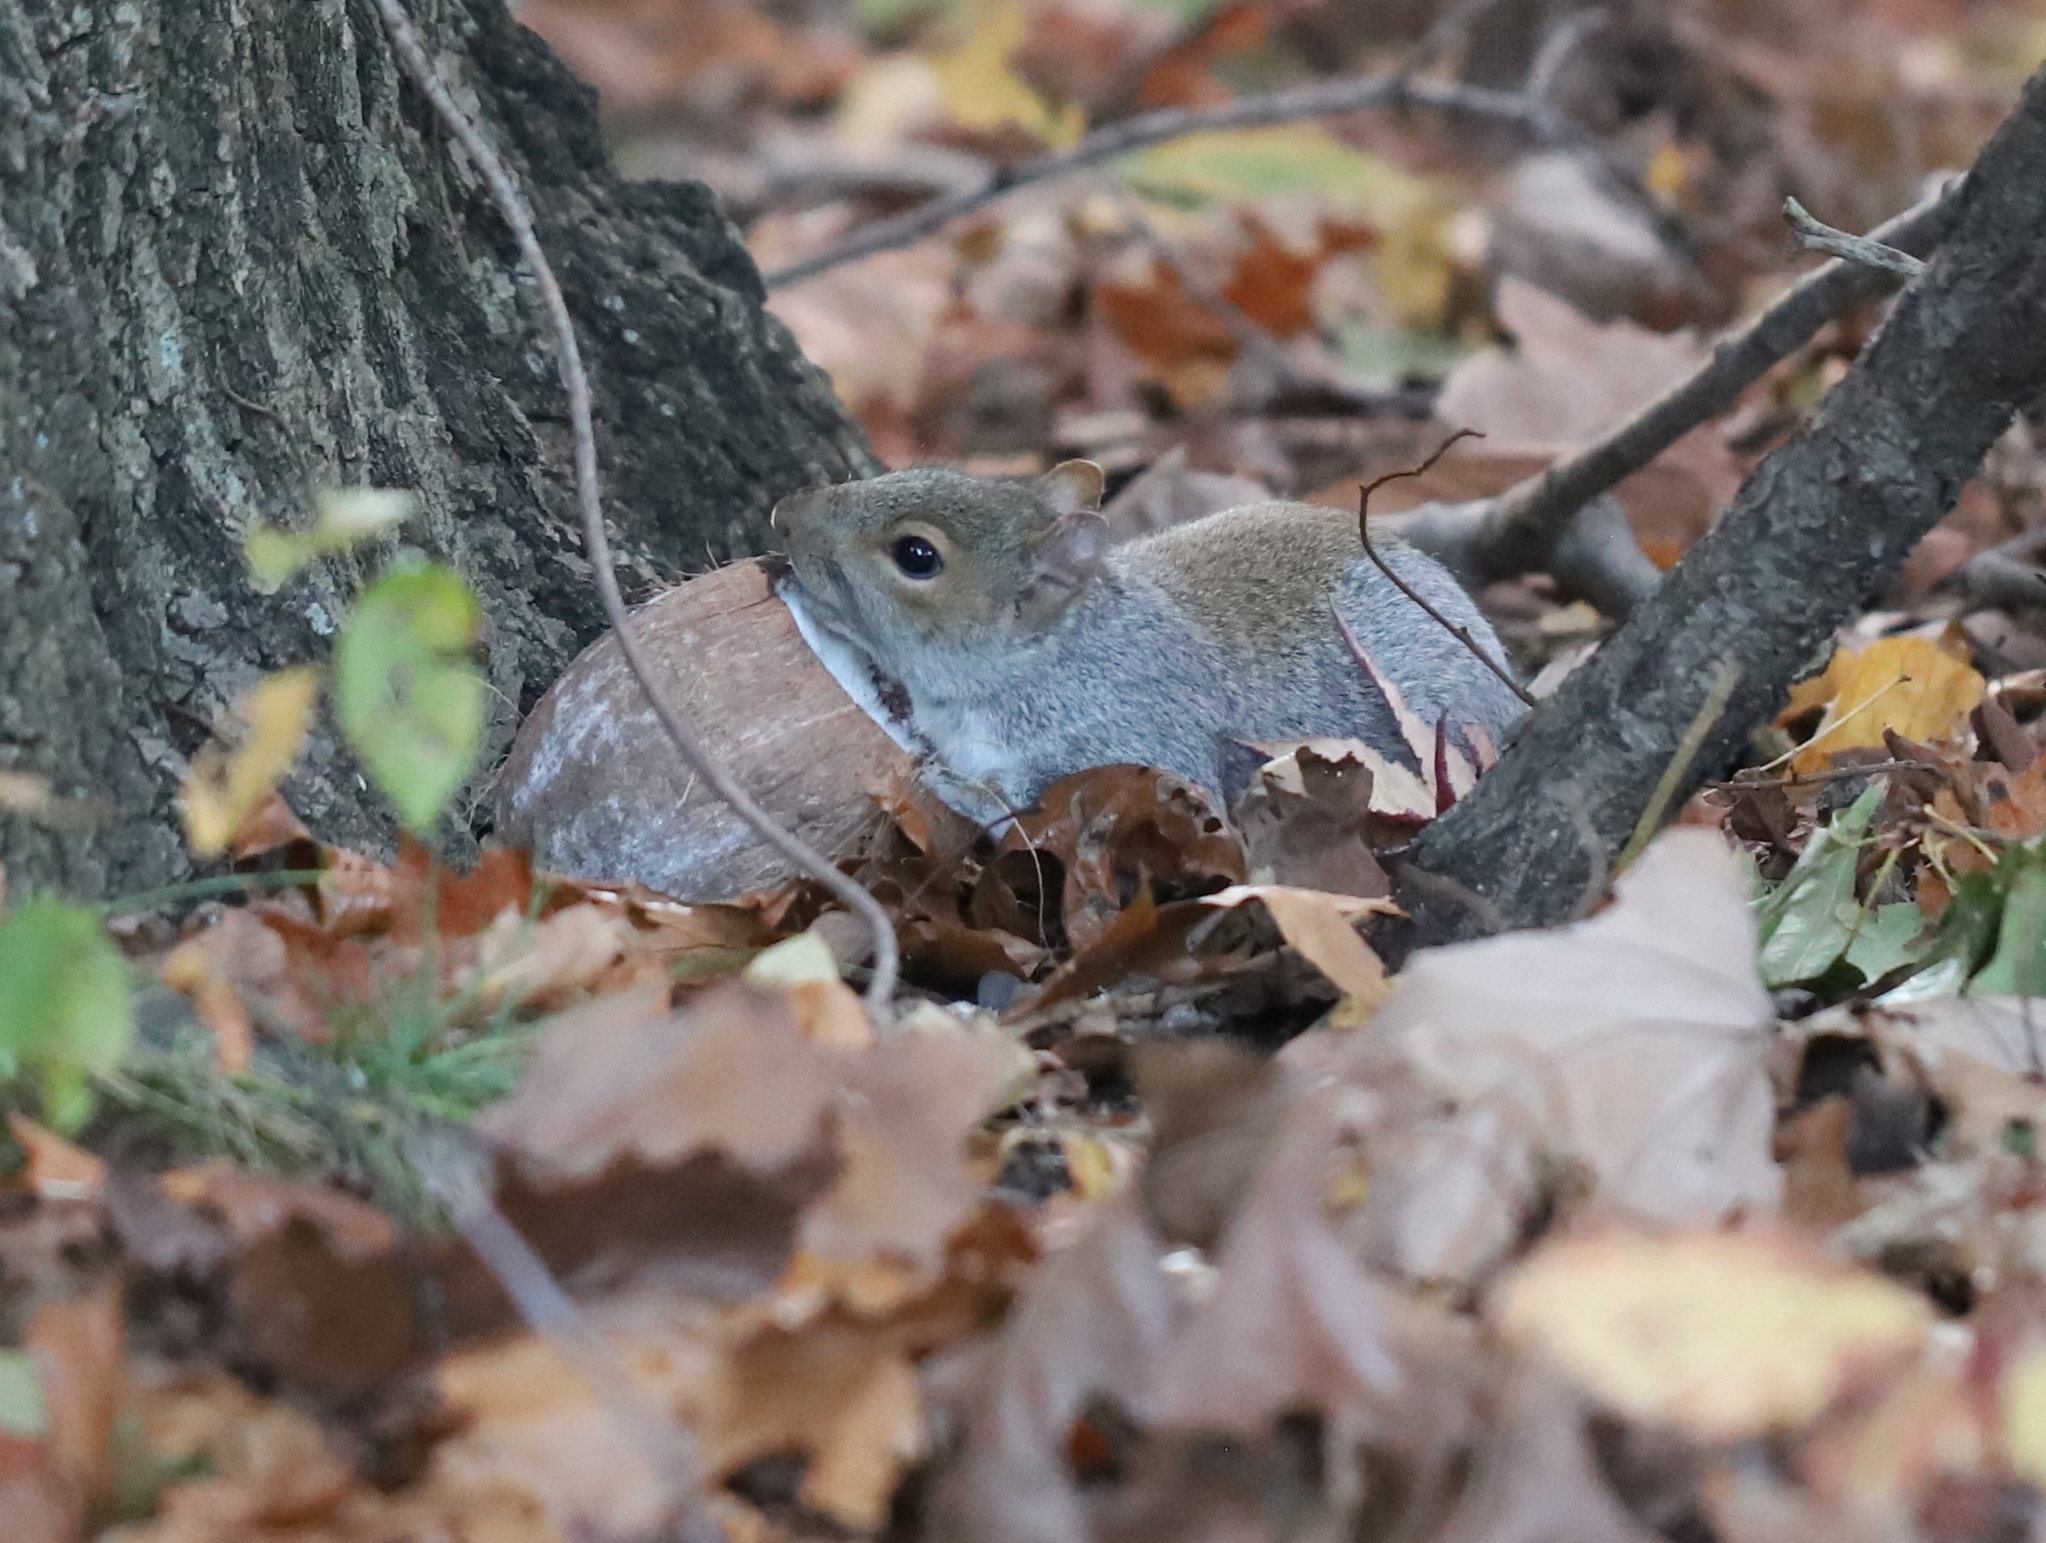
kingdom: Animalia
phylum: Chordata
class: Mammalia
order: Rodentia
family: Sciuridae
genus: Sciurus
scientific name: Sciurus carolinensis
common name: Eastern gray squirrel
